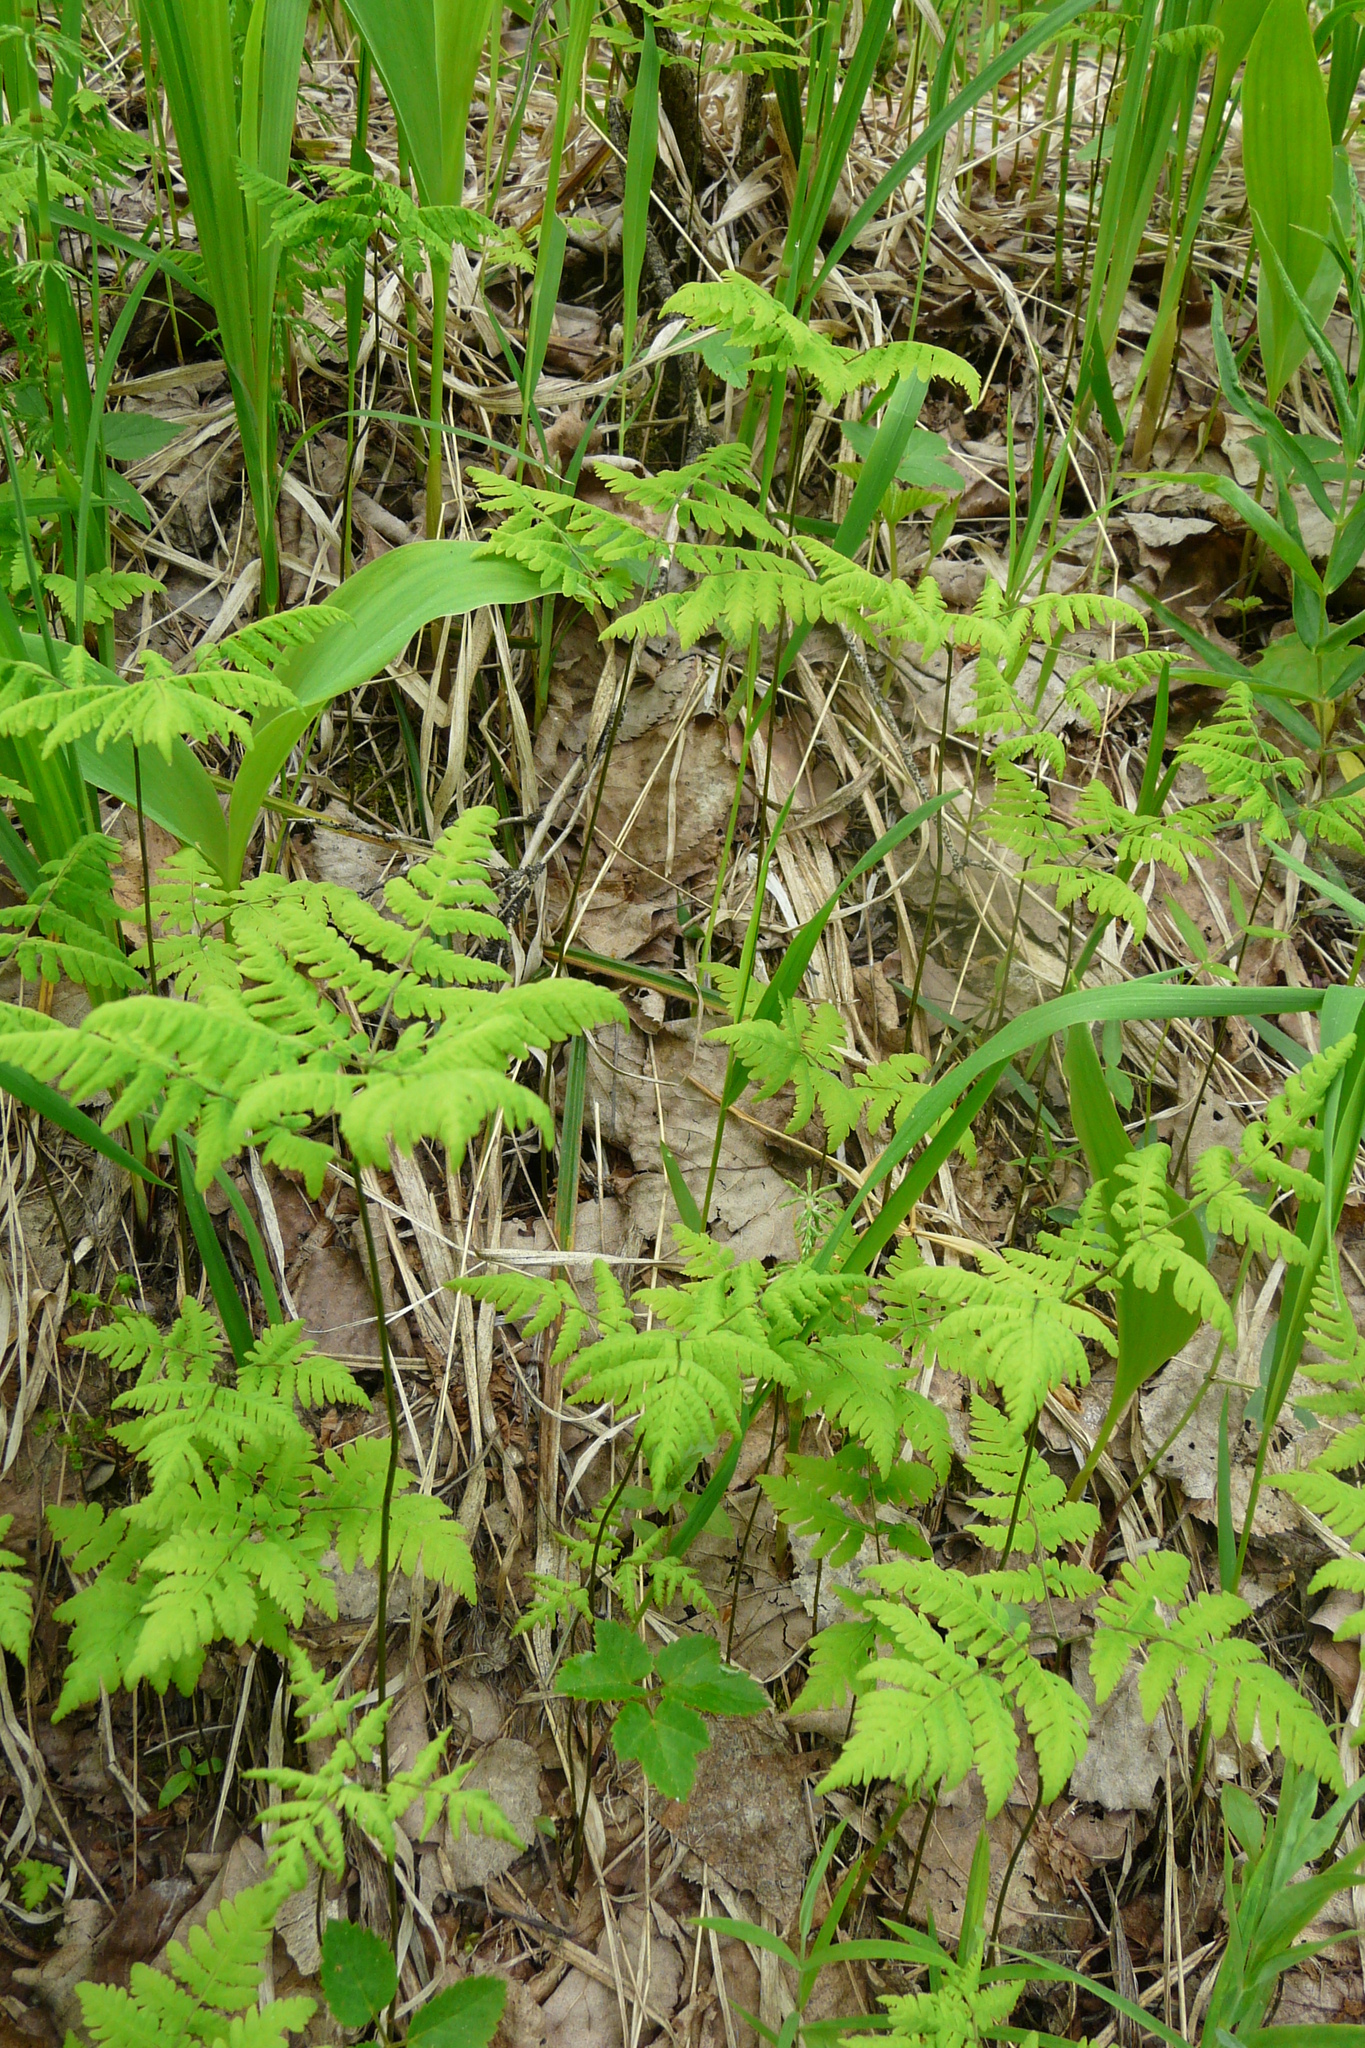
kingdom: Plantae
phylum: Tracheophyta
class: Polypodiopsida
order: Polypodiales
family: Cystopteridaceae
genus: Gymnocarpium
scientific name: Gymnocarpium dryopteris
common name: Oak fern
